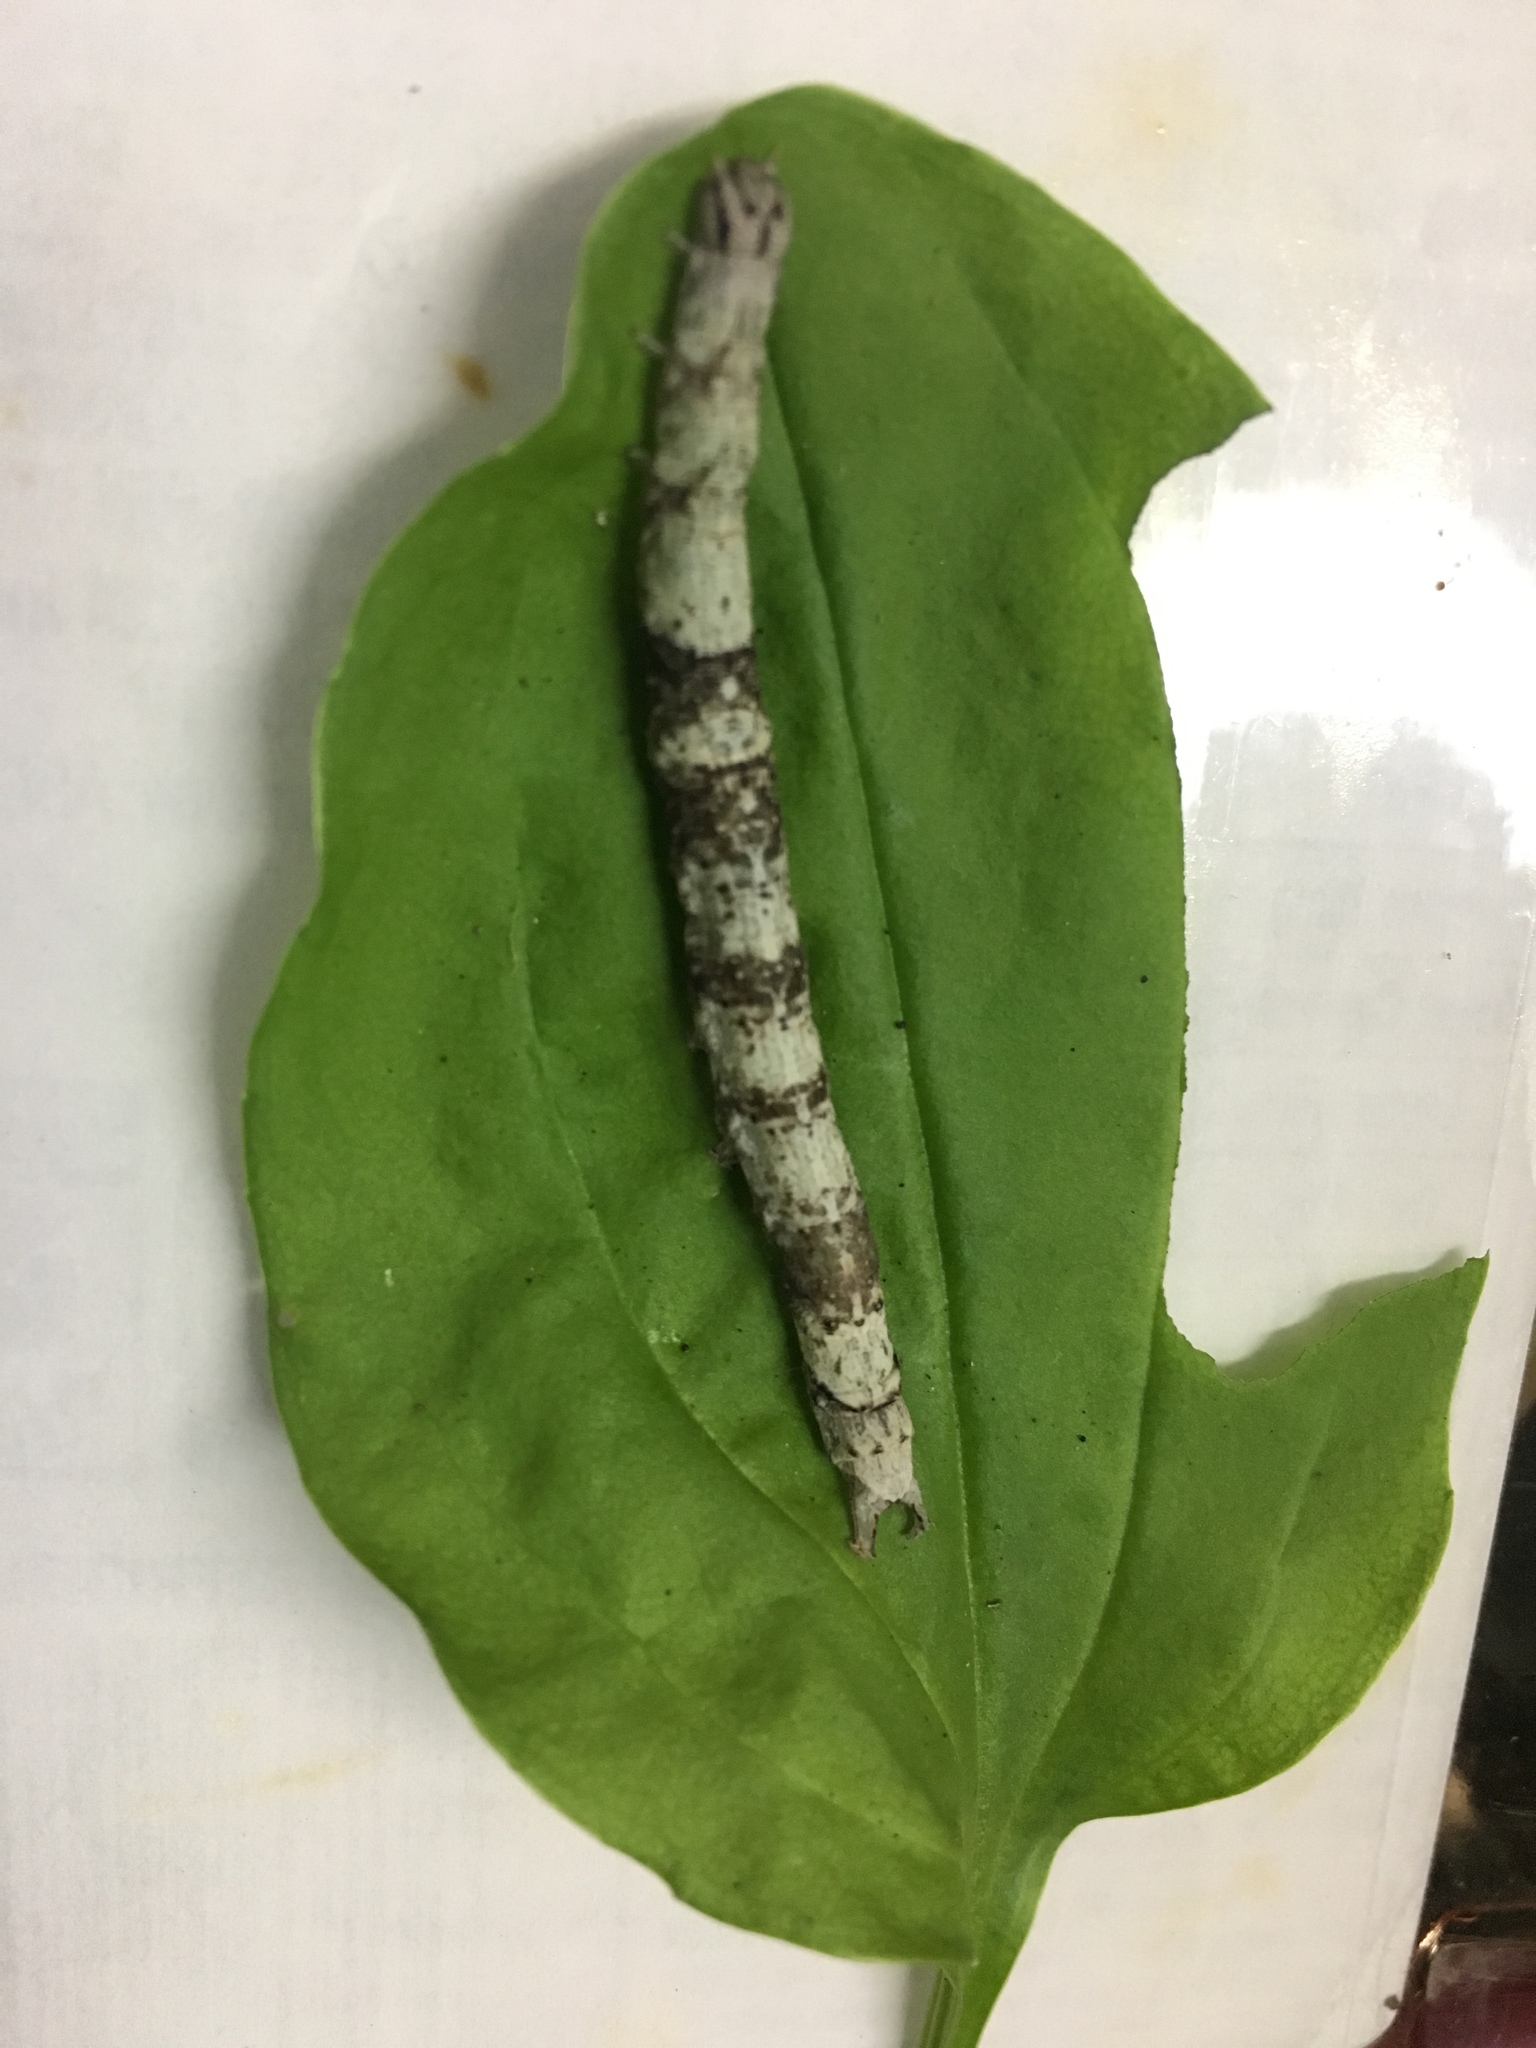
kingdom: Animalia
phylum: Arthropoda
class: Insecta
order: Lepidoptera
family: Erebidae
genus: Parallelia
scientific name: Parallelia bistriaris
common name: Maple looper moth
